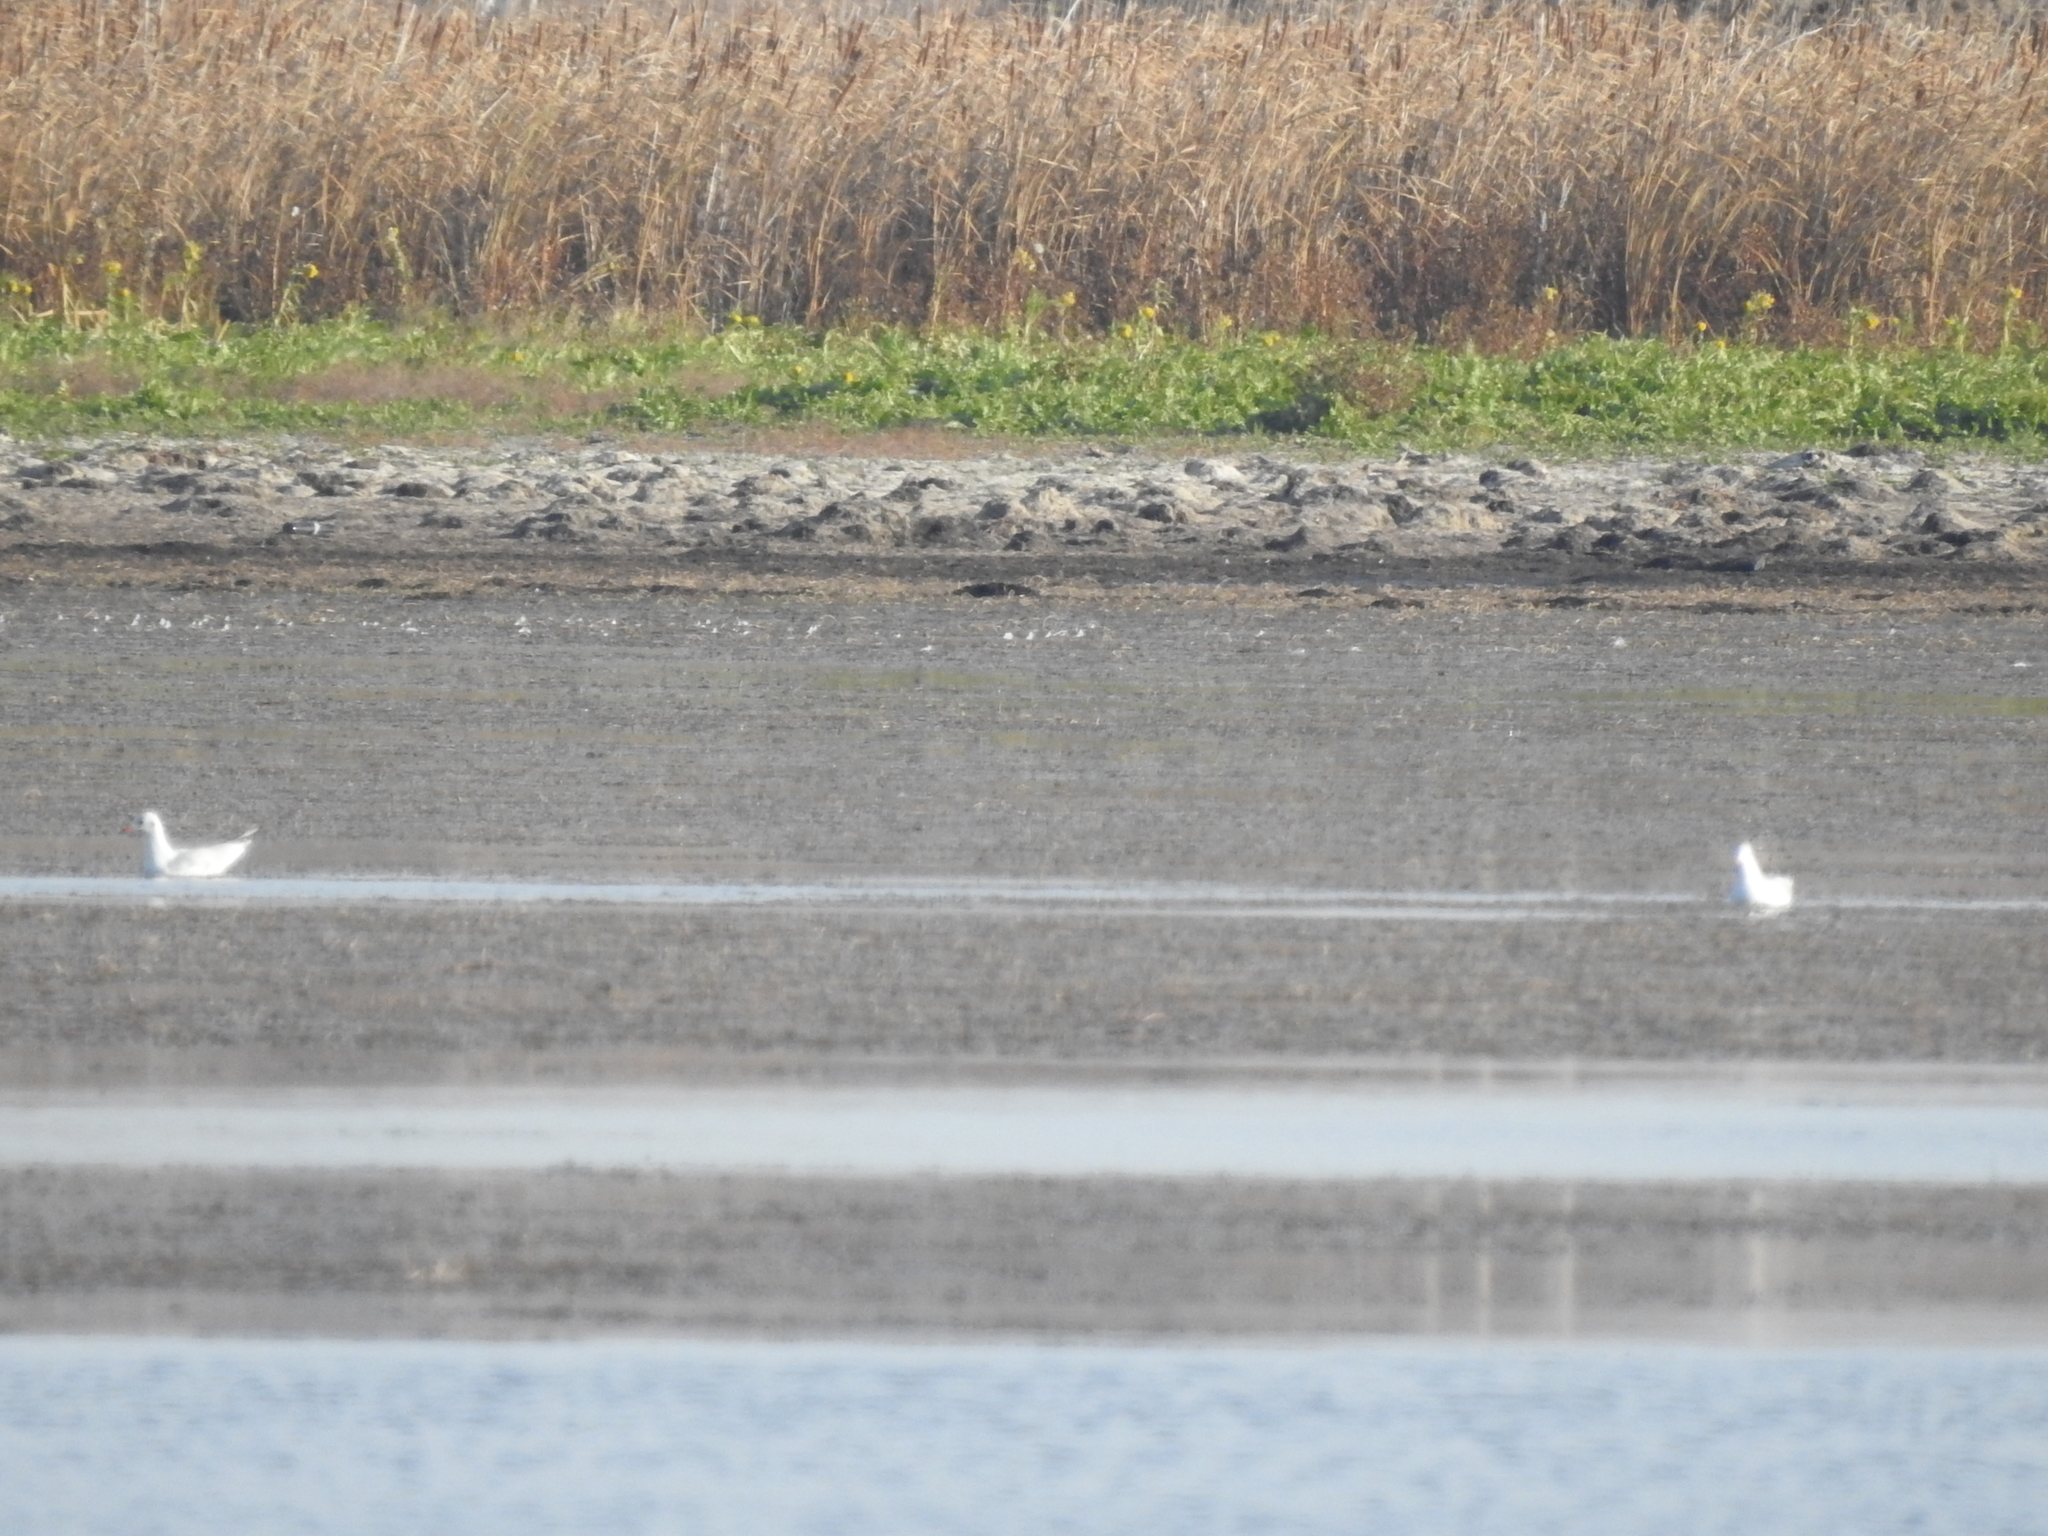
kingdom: Animalia
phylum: Chordata
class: Aves
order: Charadriiformes
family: Laridae
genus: Chroicocephalus
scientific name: Chroicocephalus ridibundus
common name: Black-headed gull
